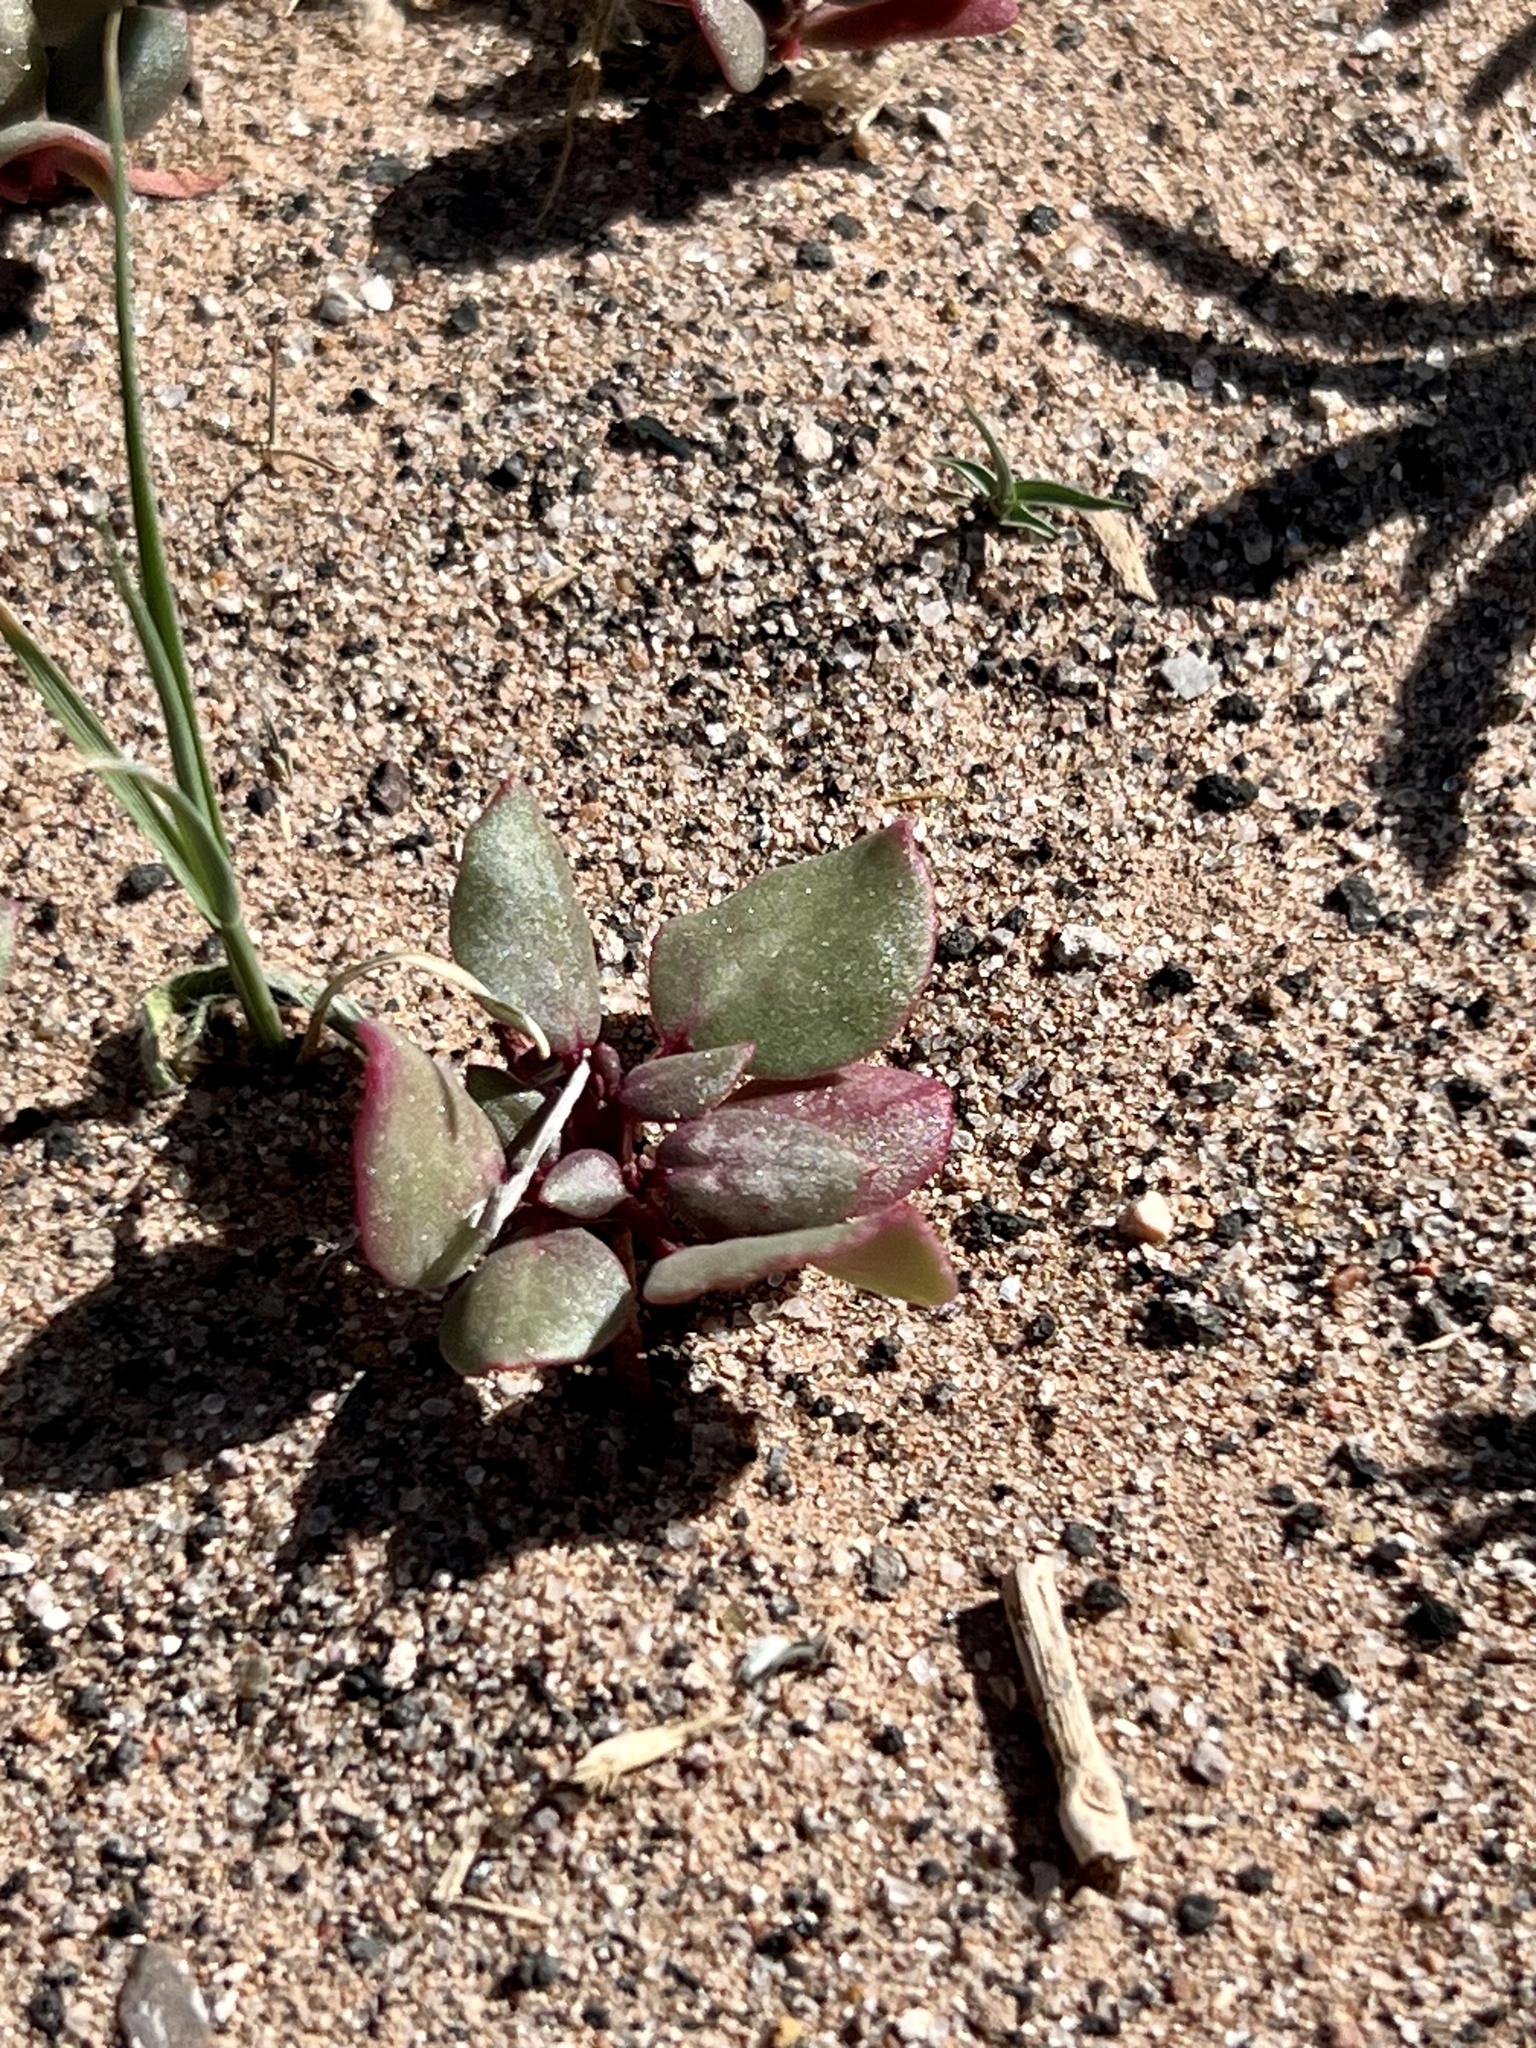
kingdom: Plantae
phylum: Tracheophyta
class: Magnoliopsida
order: Caryophyllales
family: Aizoaceae
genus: Trianthema
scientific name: Trianthema portulacastrum
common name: Desert horsepurslane
